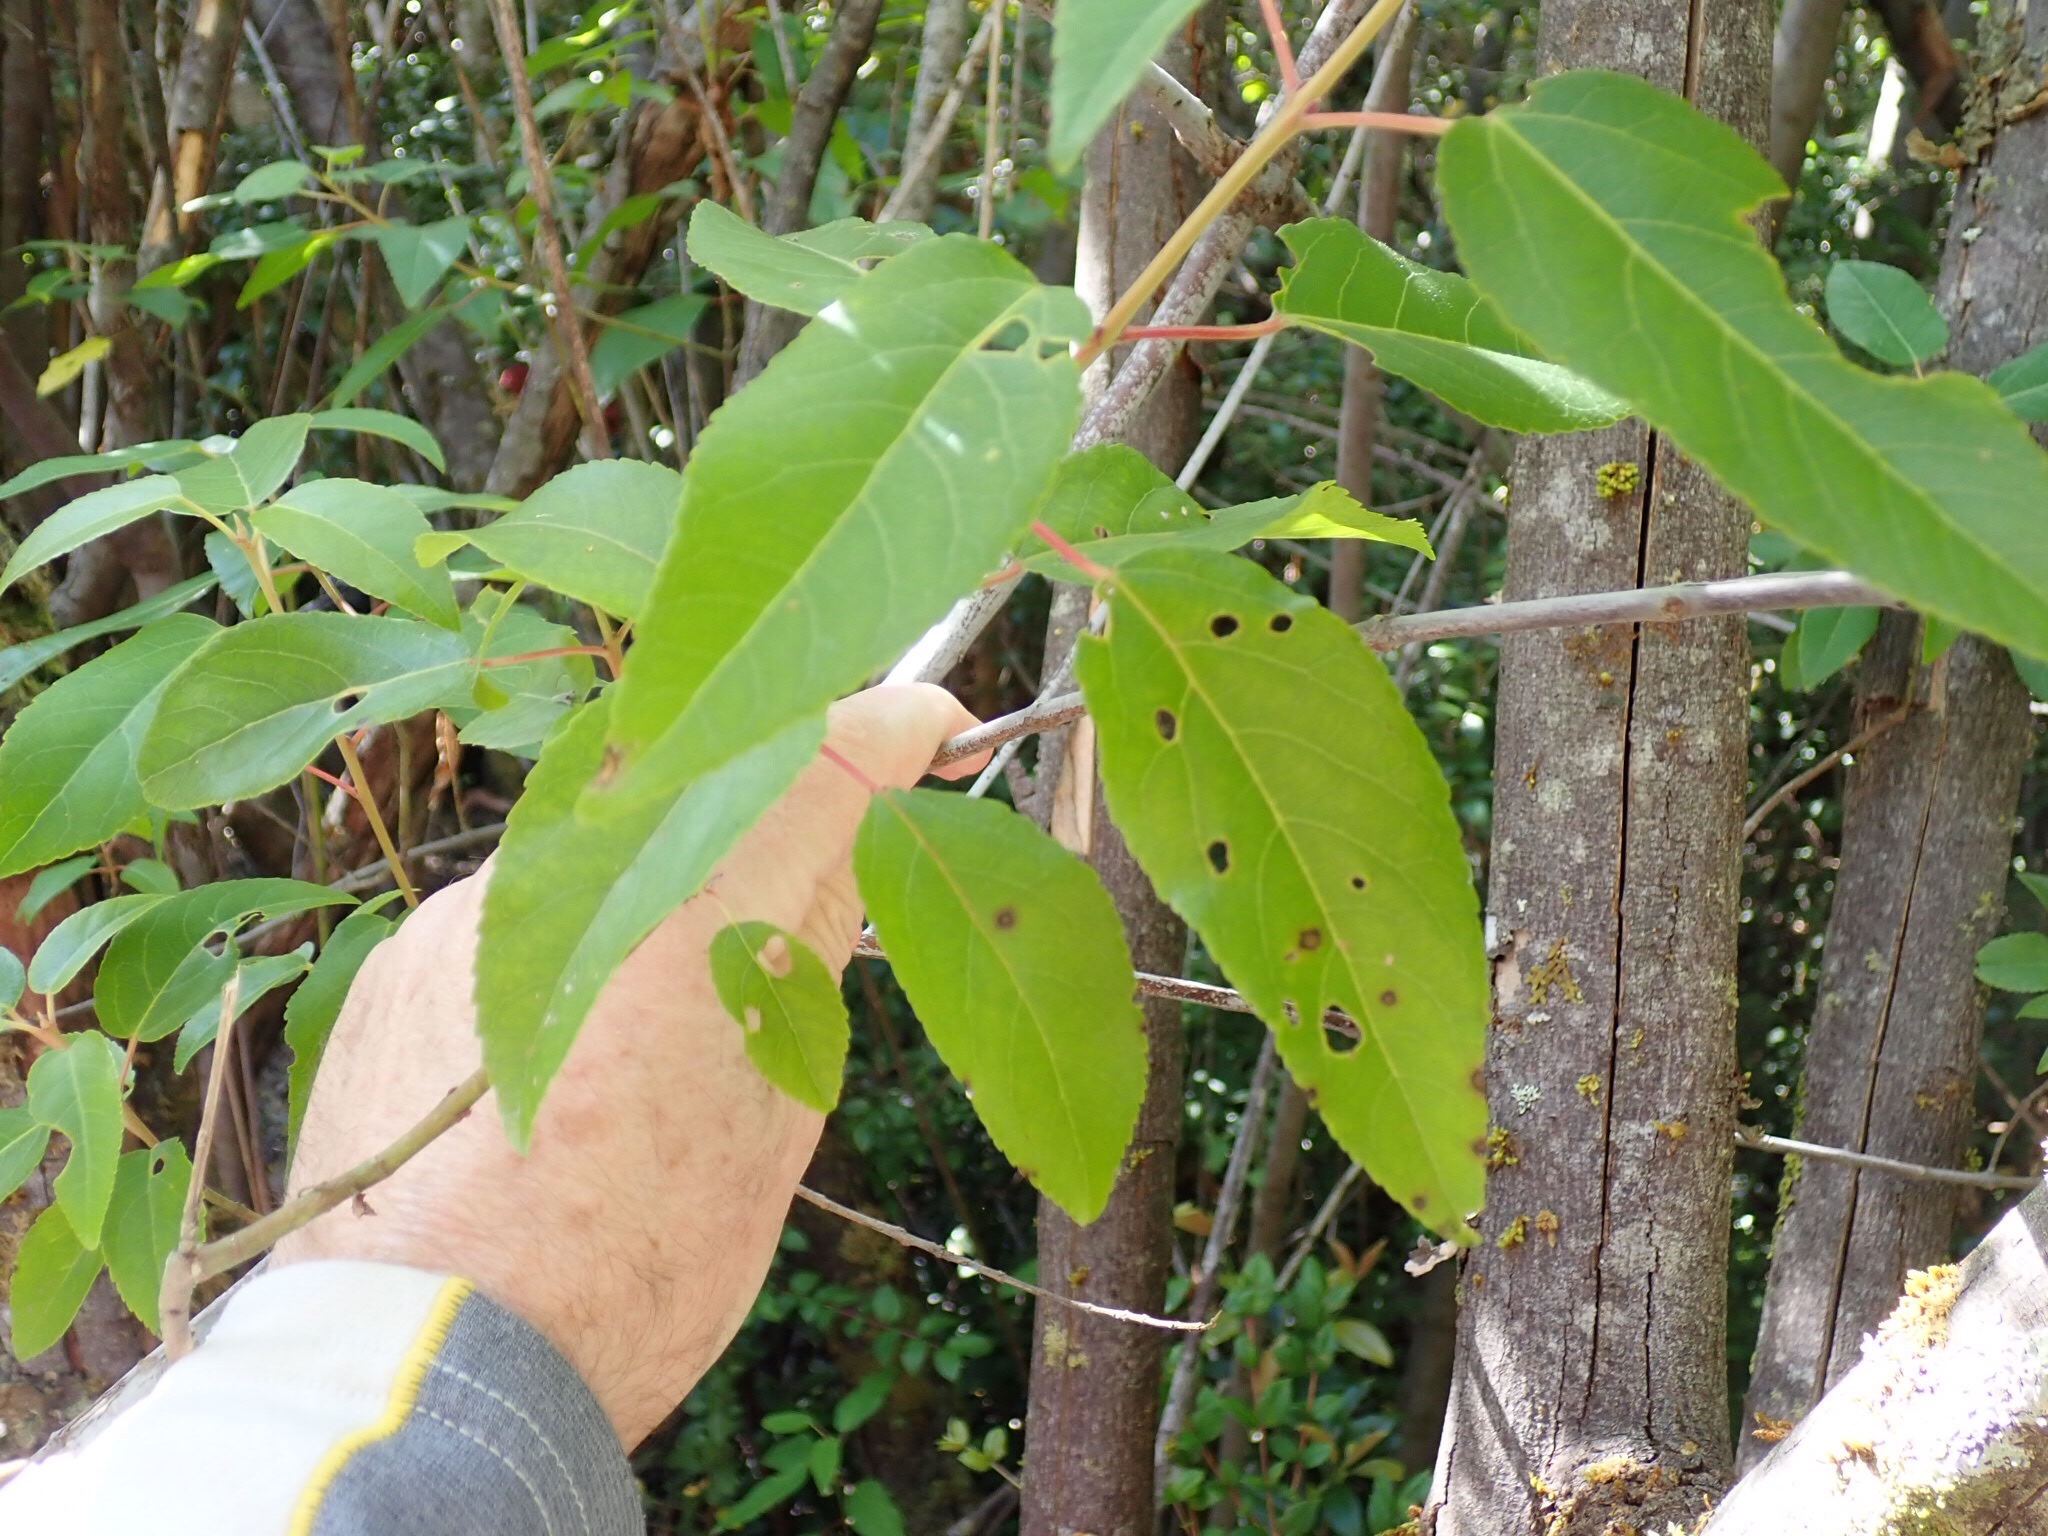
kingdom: Plantae
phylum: Tracheophyta
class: Magnoliopsida
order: Oxalidales
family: Elaeocarpaceae
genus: Aristotelia
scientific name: Aristotelia chilensis
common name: Maquei
